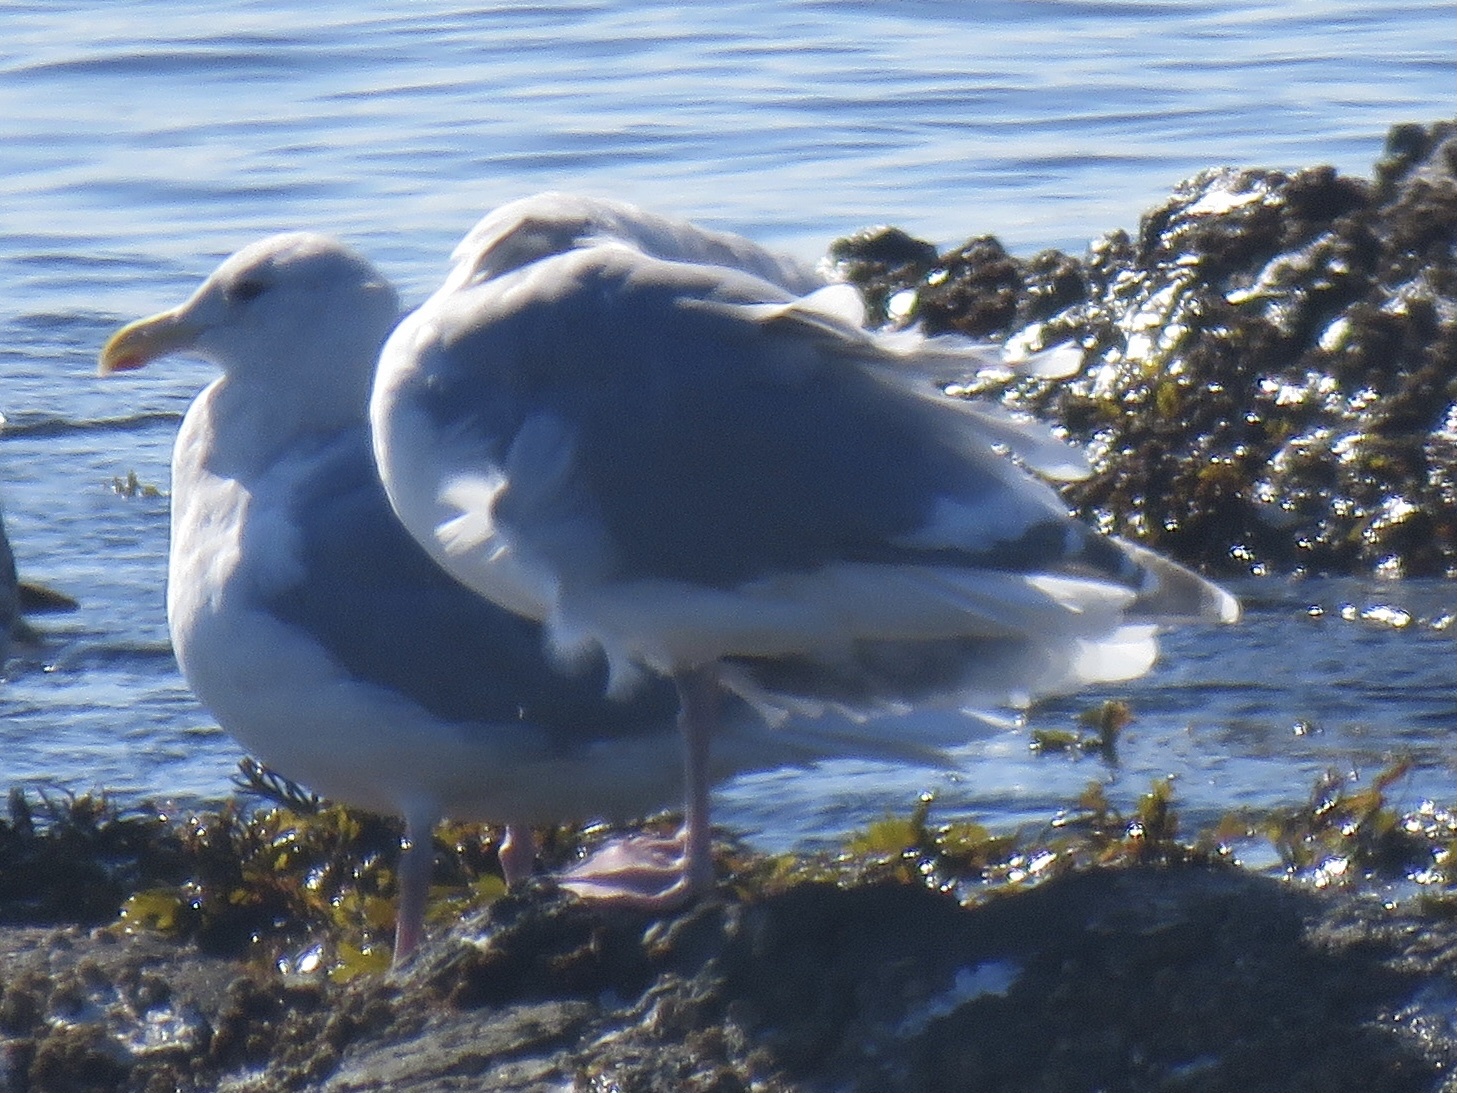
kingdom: Animalia
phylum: Chordata
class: Aves
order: Charadriiformes
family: Laridae
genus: Larus
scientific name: Larus glaucescens
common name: Glaucous-winged gull
